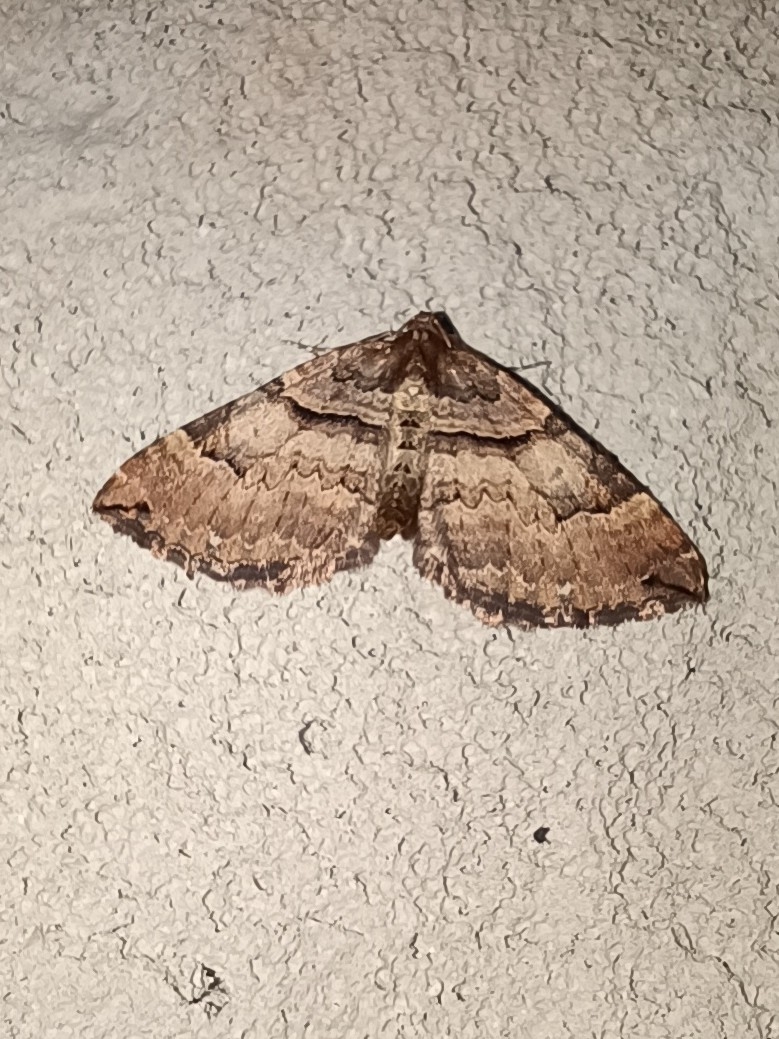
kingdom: Animalia
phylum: Arthropoda
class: Insecta
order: Lepidoptera
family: Geometridae
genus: Anticlea
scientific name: Anticlea badiata
